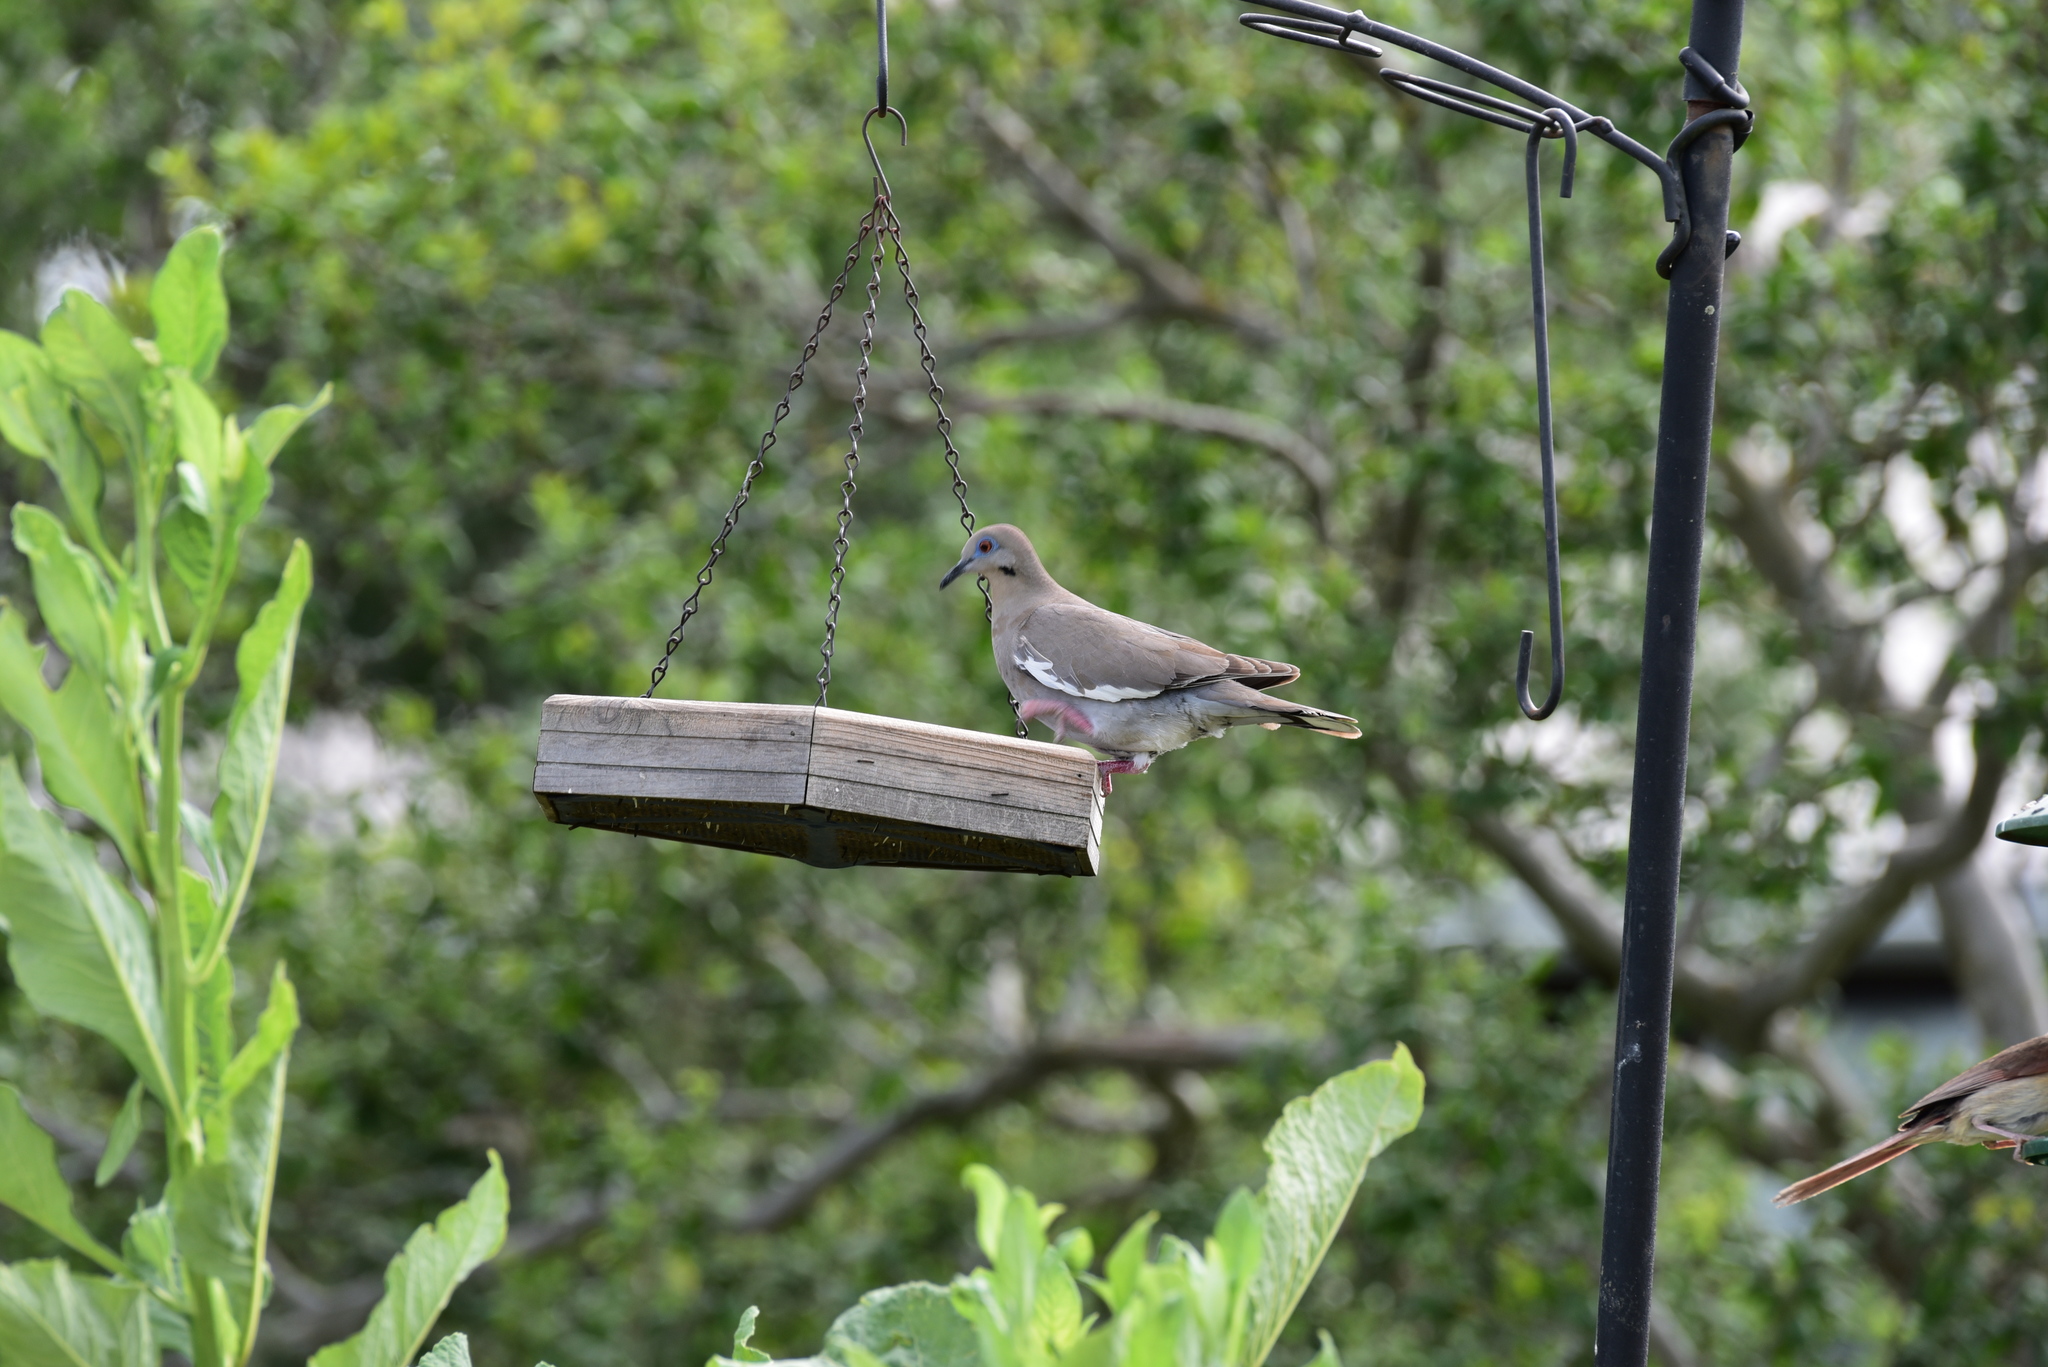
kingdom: Animalia
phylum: Chordata
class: Aves
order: Columbiformes
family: Columbidae
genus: Zenaida
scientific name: Zenaida asiatica
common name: White-winged dove
